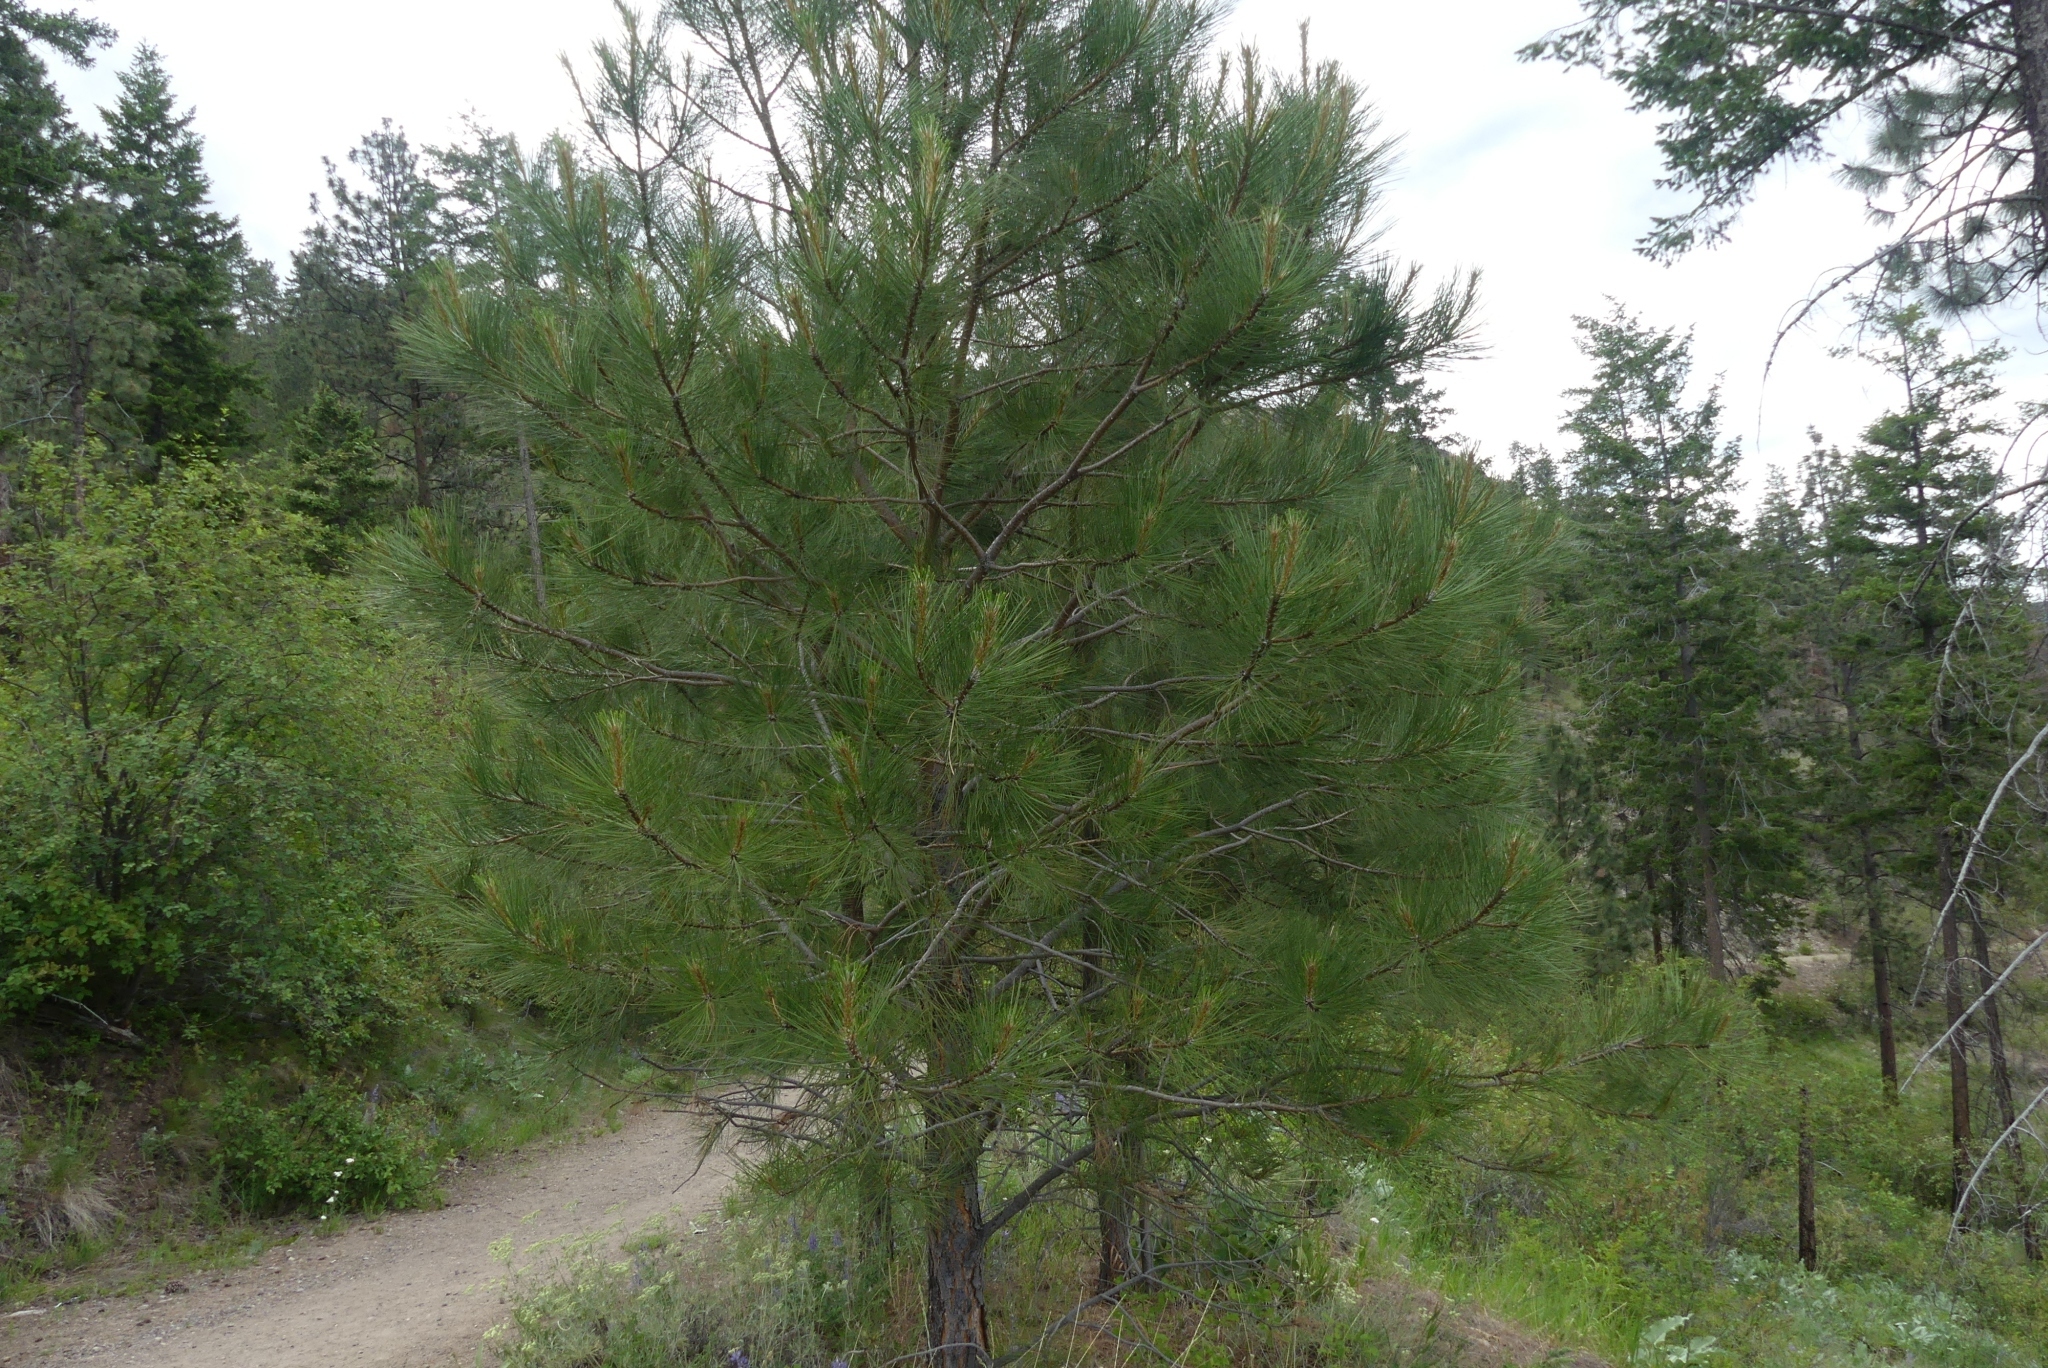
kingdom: Plantae
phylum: Tracheophyta
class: Pinopsida
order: Pinales
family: Pinaceae
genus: Pinus
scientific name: Pinus ponderosa
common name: Western yellow-pine
